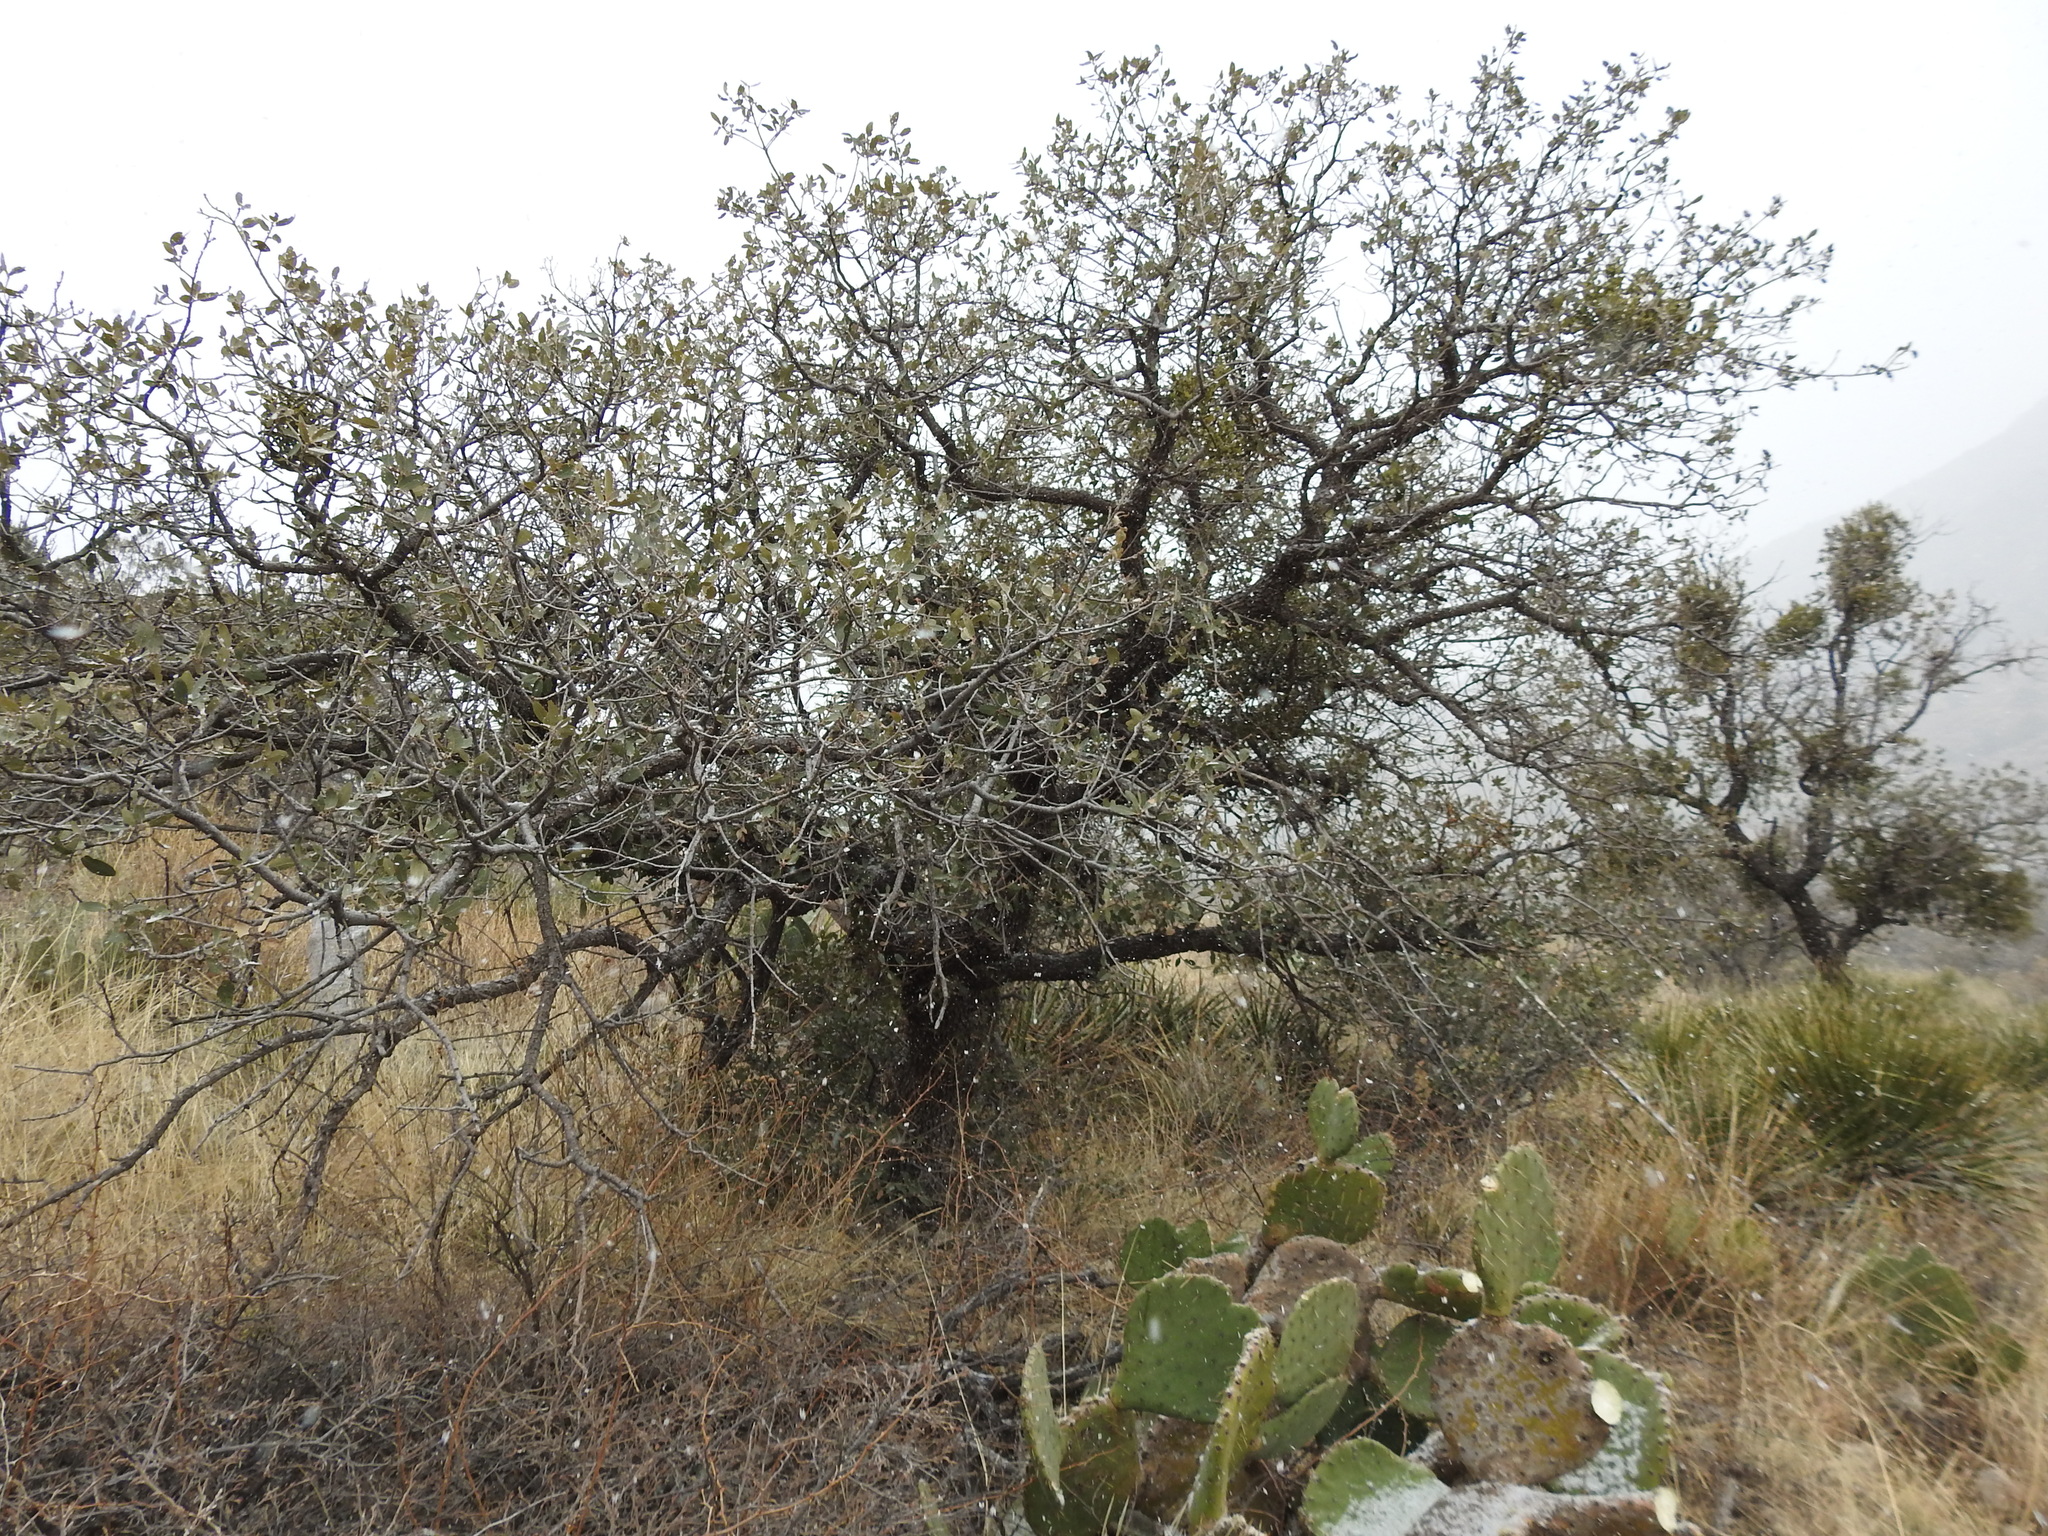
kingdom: Plantae
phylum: Tracheophyta
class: Magnoliopsida
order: Fagales
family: Fagaceae
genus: Quercus
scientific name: Quercus grisea
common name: Gray oak
